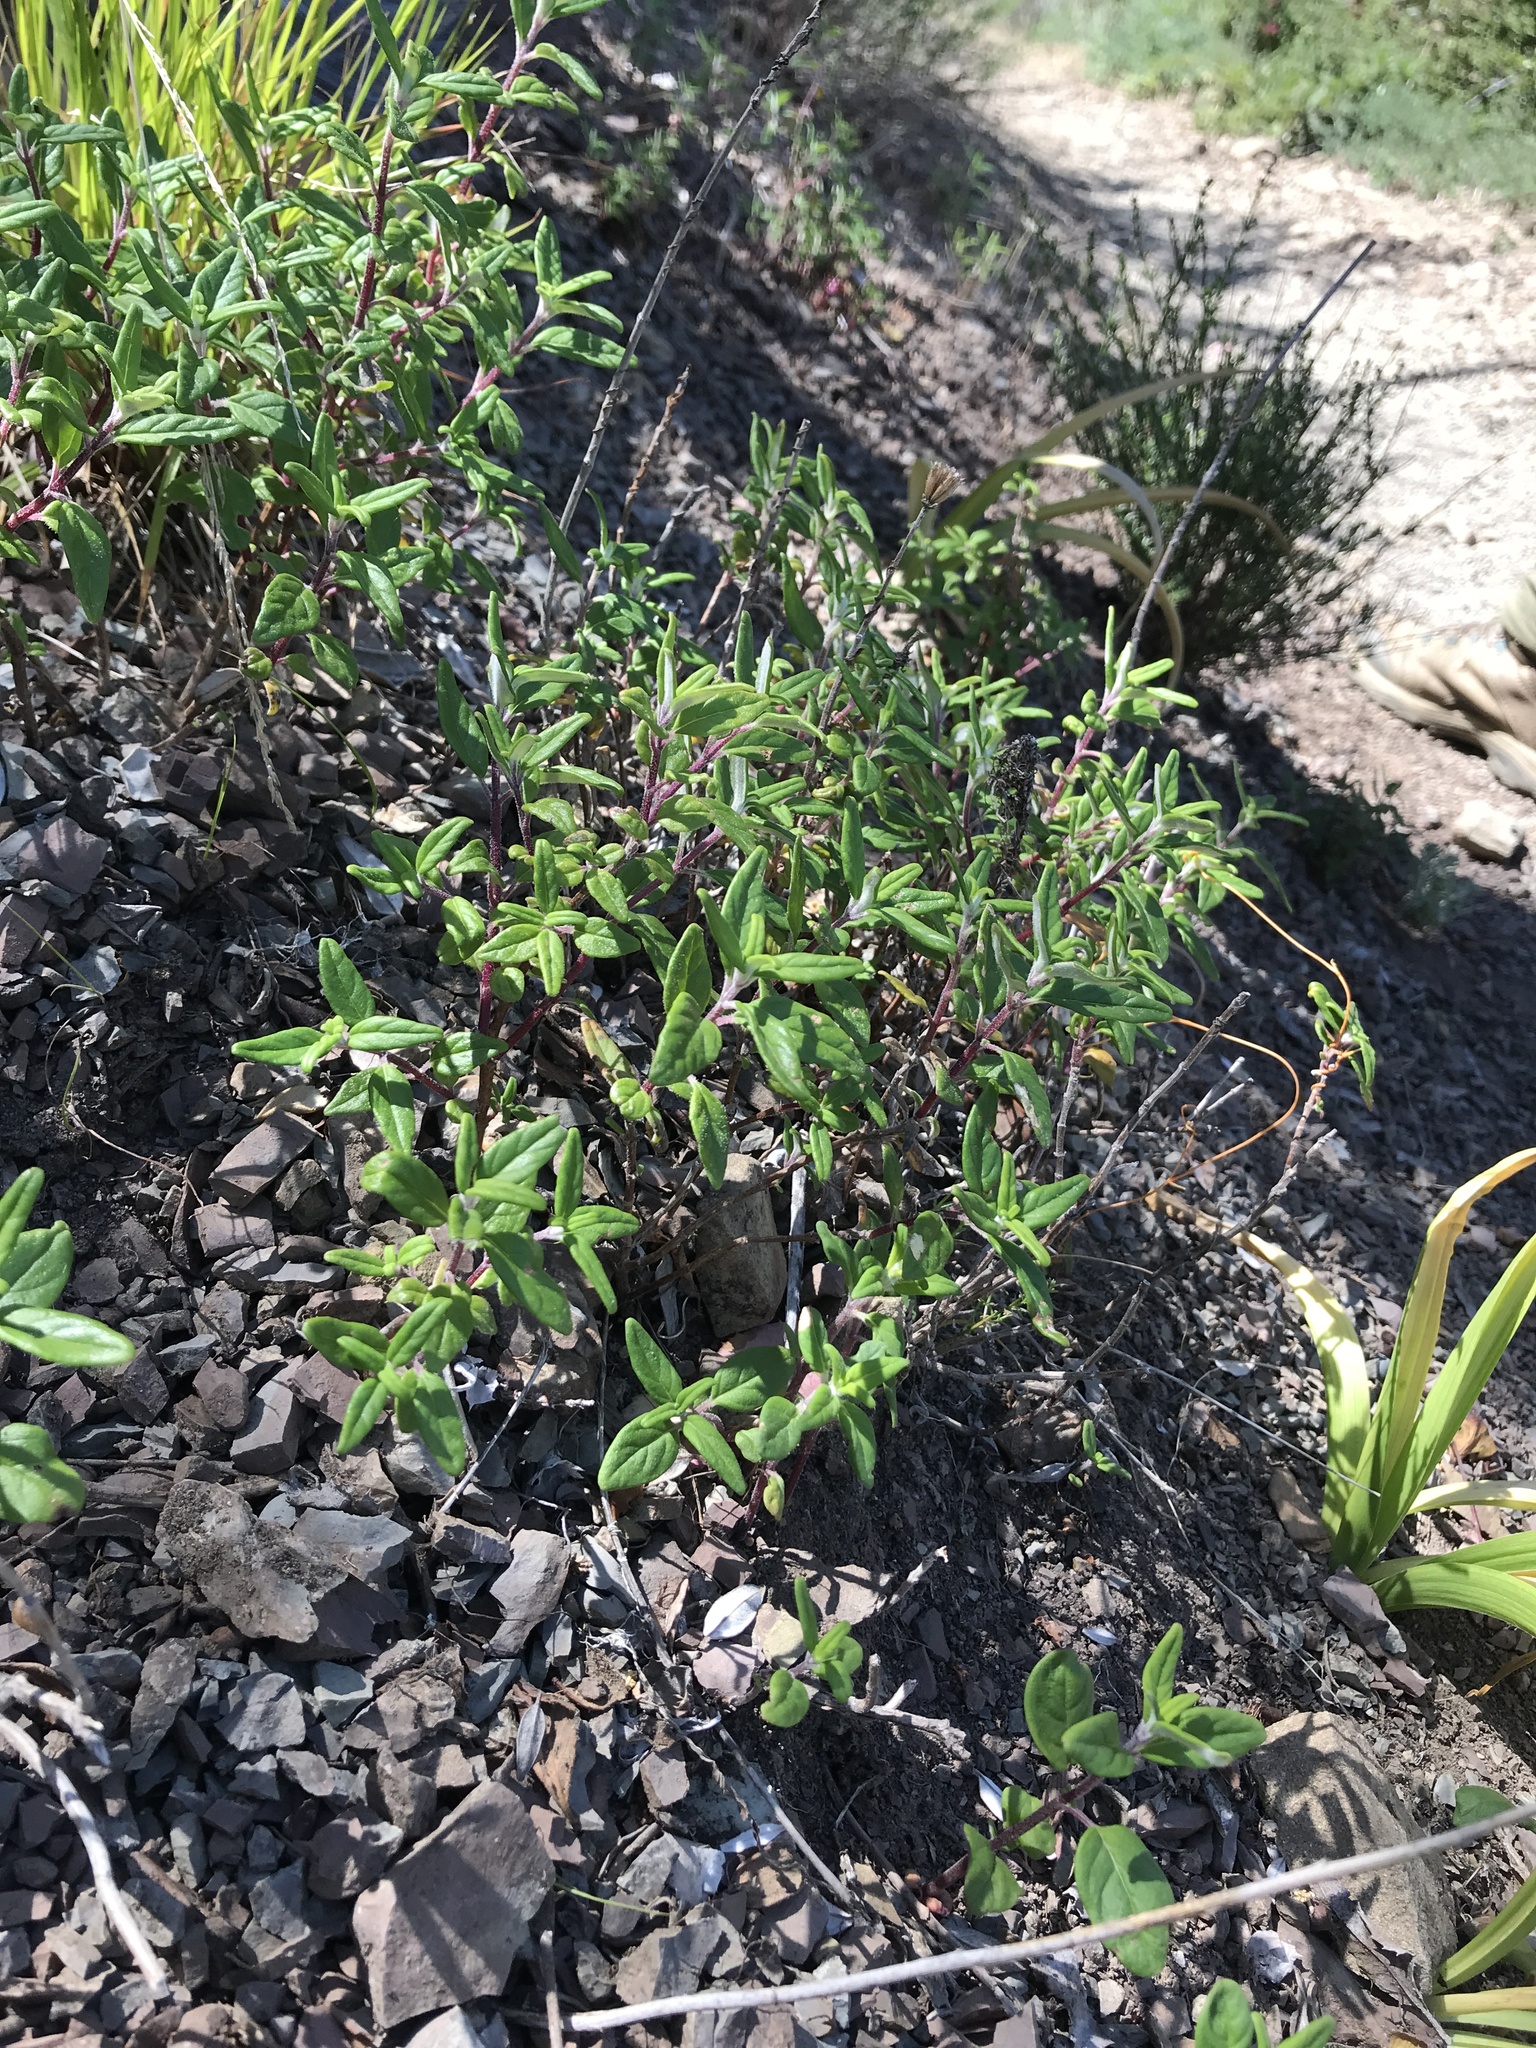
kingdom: Plantae
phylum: Tracheophyta
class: Magnoliopsida
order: Lamiales
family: Lamiaceae
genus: Monardella
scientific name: Monardella hypoleuca
